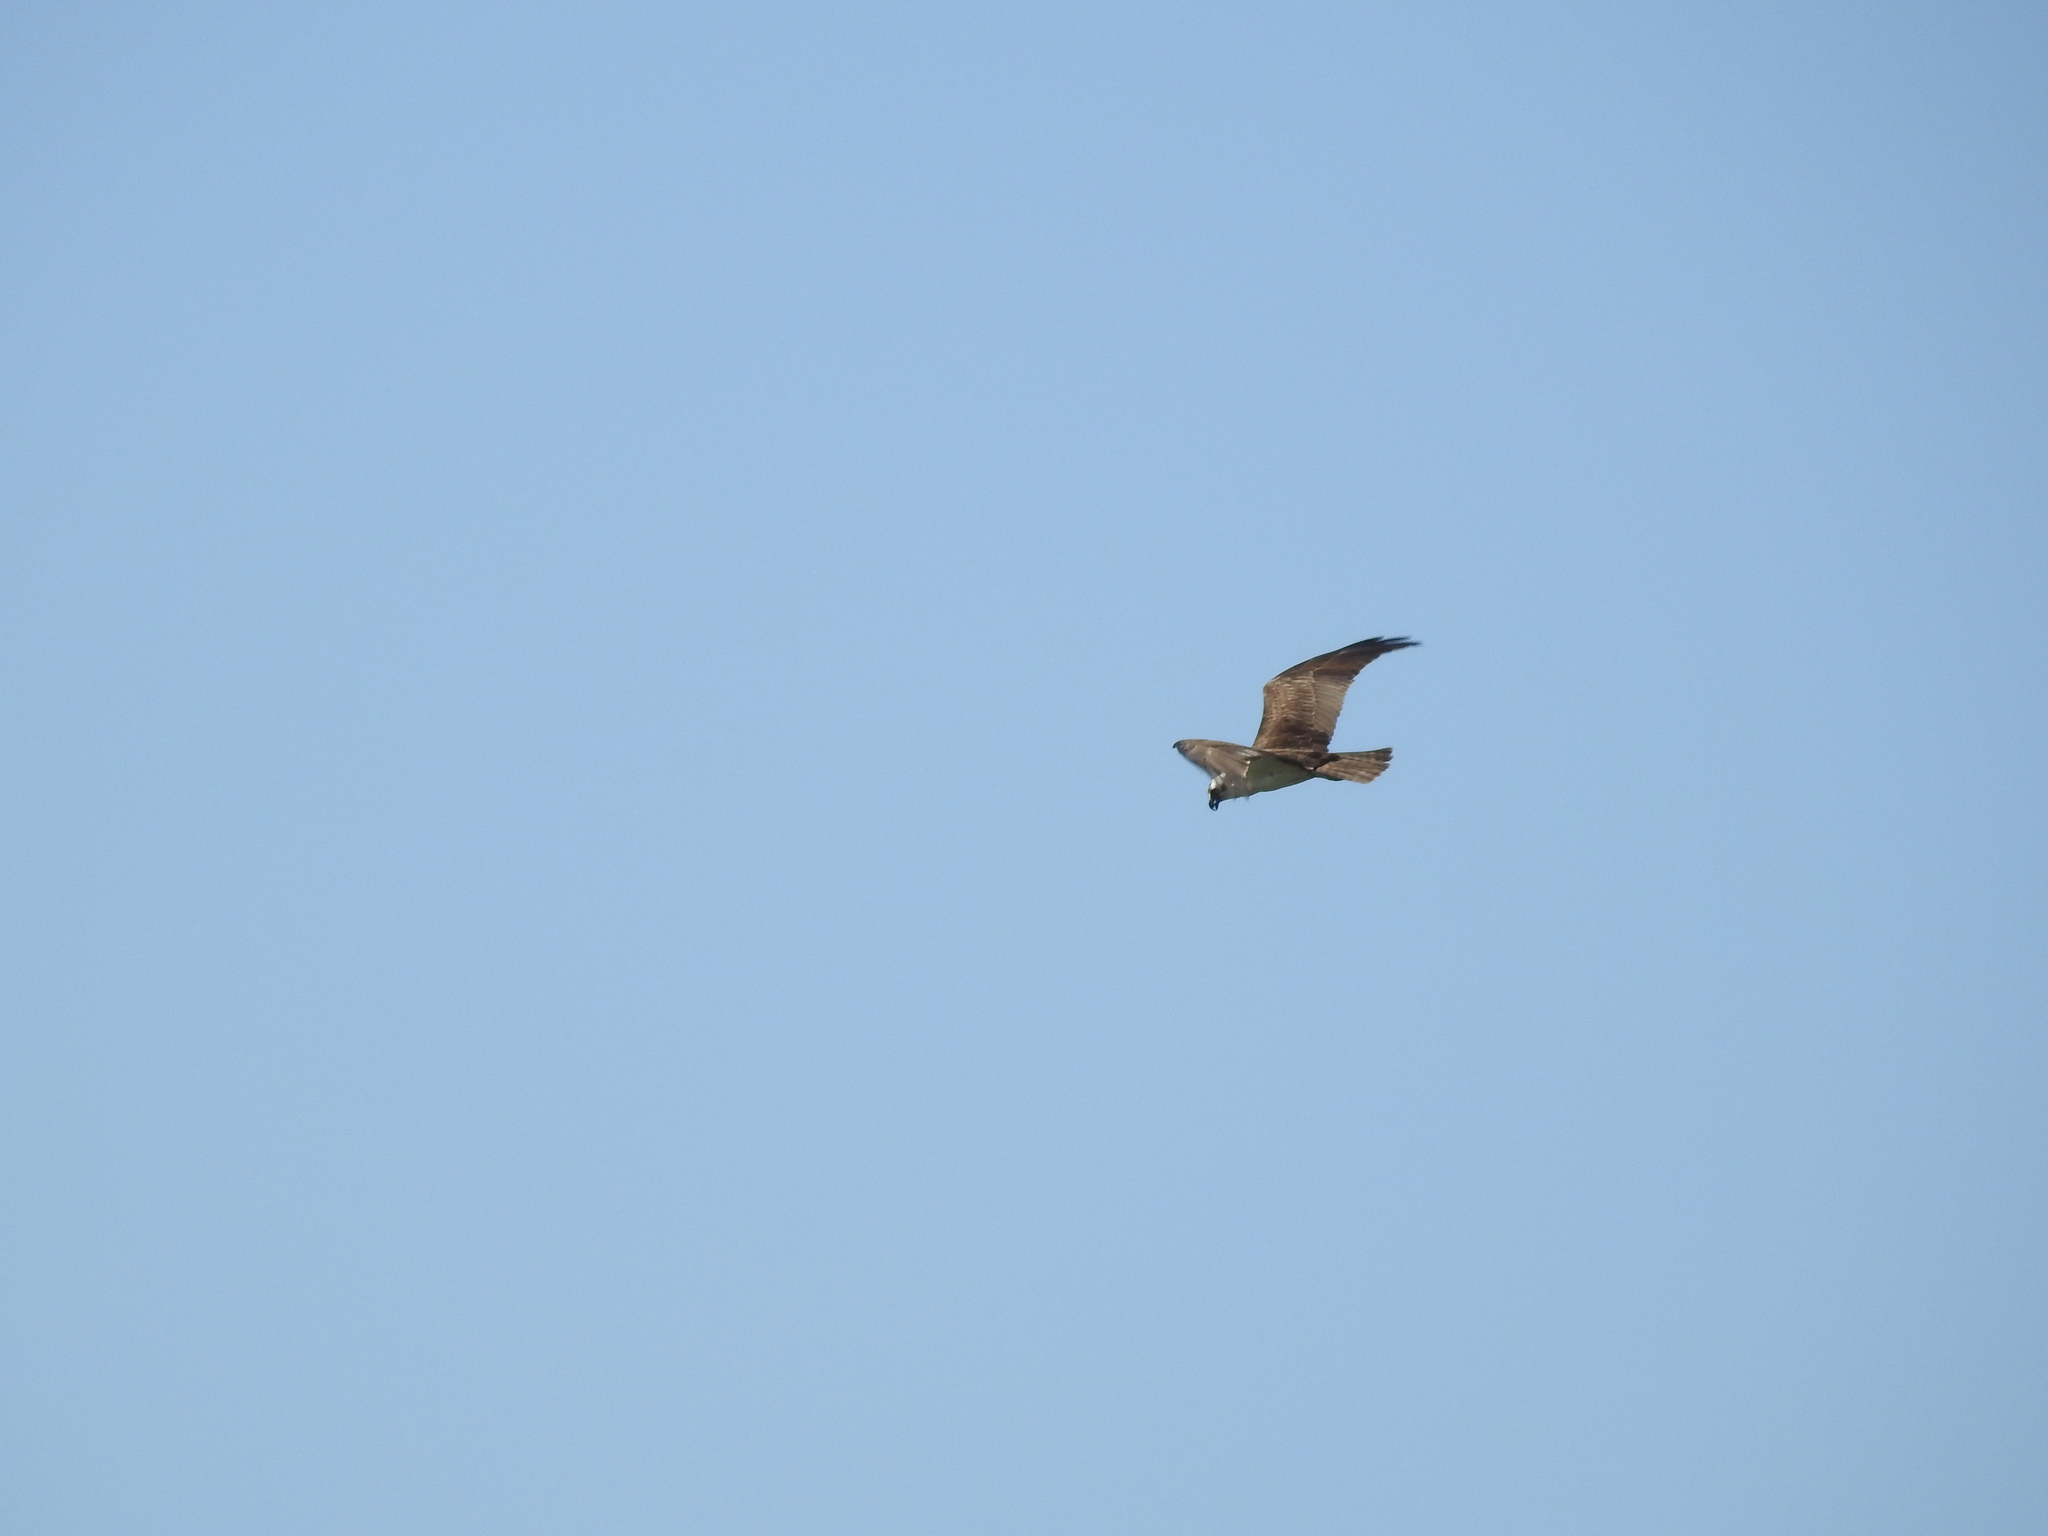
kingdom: Animalia
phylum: Chordata
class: Aves
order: Accipitriformes
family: Pandionidae
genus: Pandion
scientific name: Pandion haliaetus
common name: Osprey
